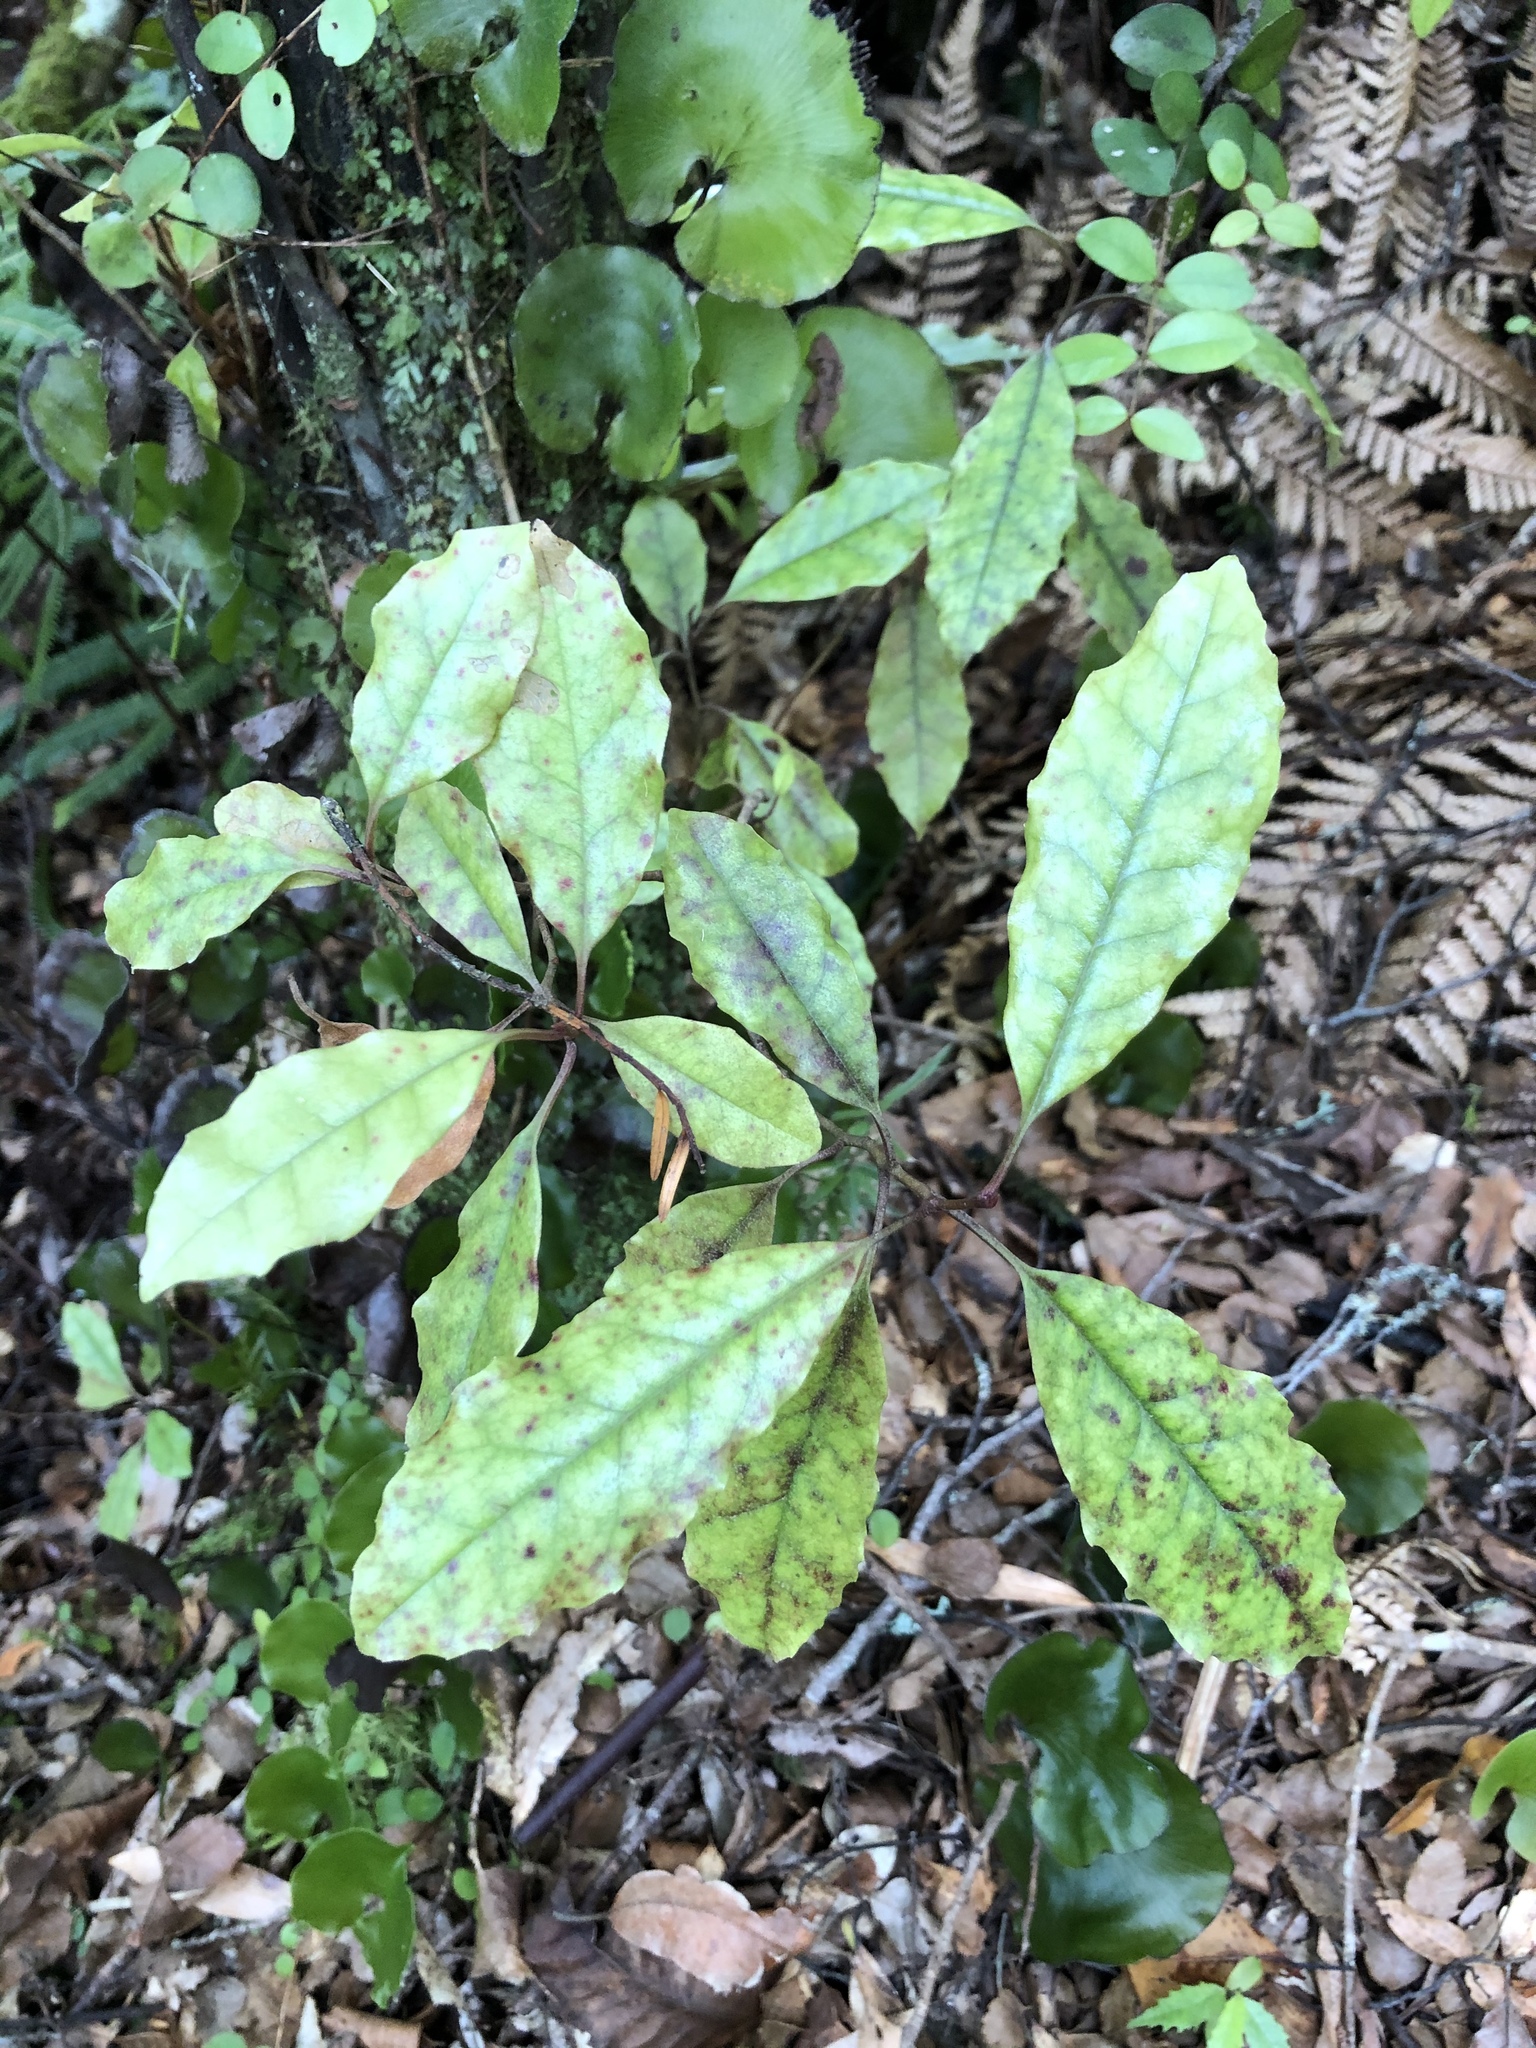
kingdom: Plantae
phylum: Tracheophyta
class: Magnoliopsida
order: Paracryphiales
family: Paracryphiaceae
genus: Quintinia
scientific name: Quintinia serrata
